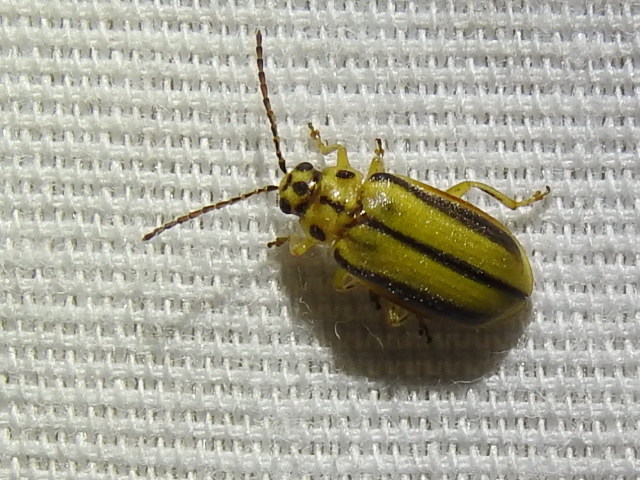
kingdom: Animalia
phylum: Arthropoda
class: Insecta
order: Coleoptera
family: Chrysomelidae
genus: Xanthogaleruca
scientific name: Xanthogaleruca luteola
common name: Elm leaf beetle
